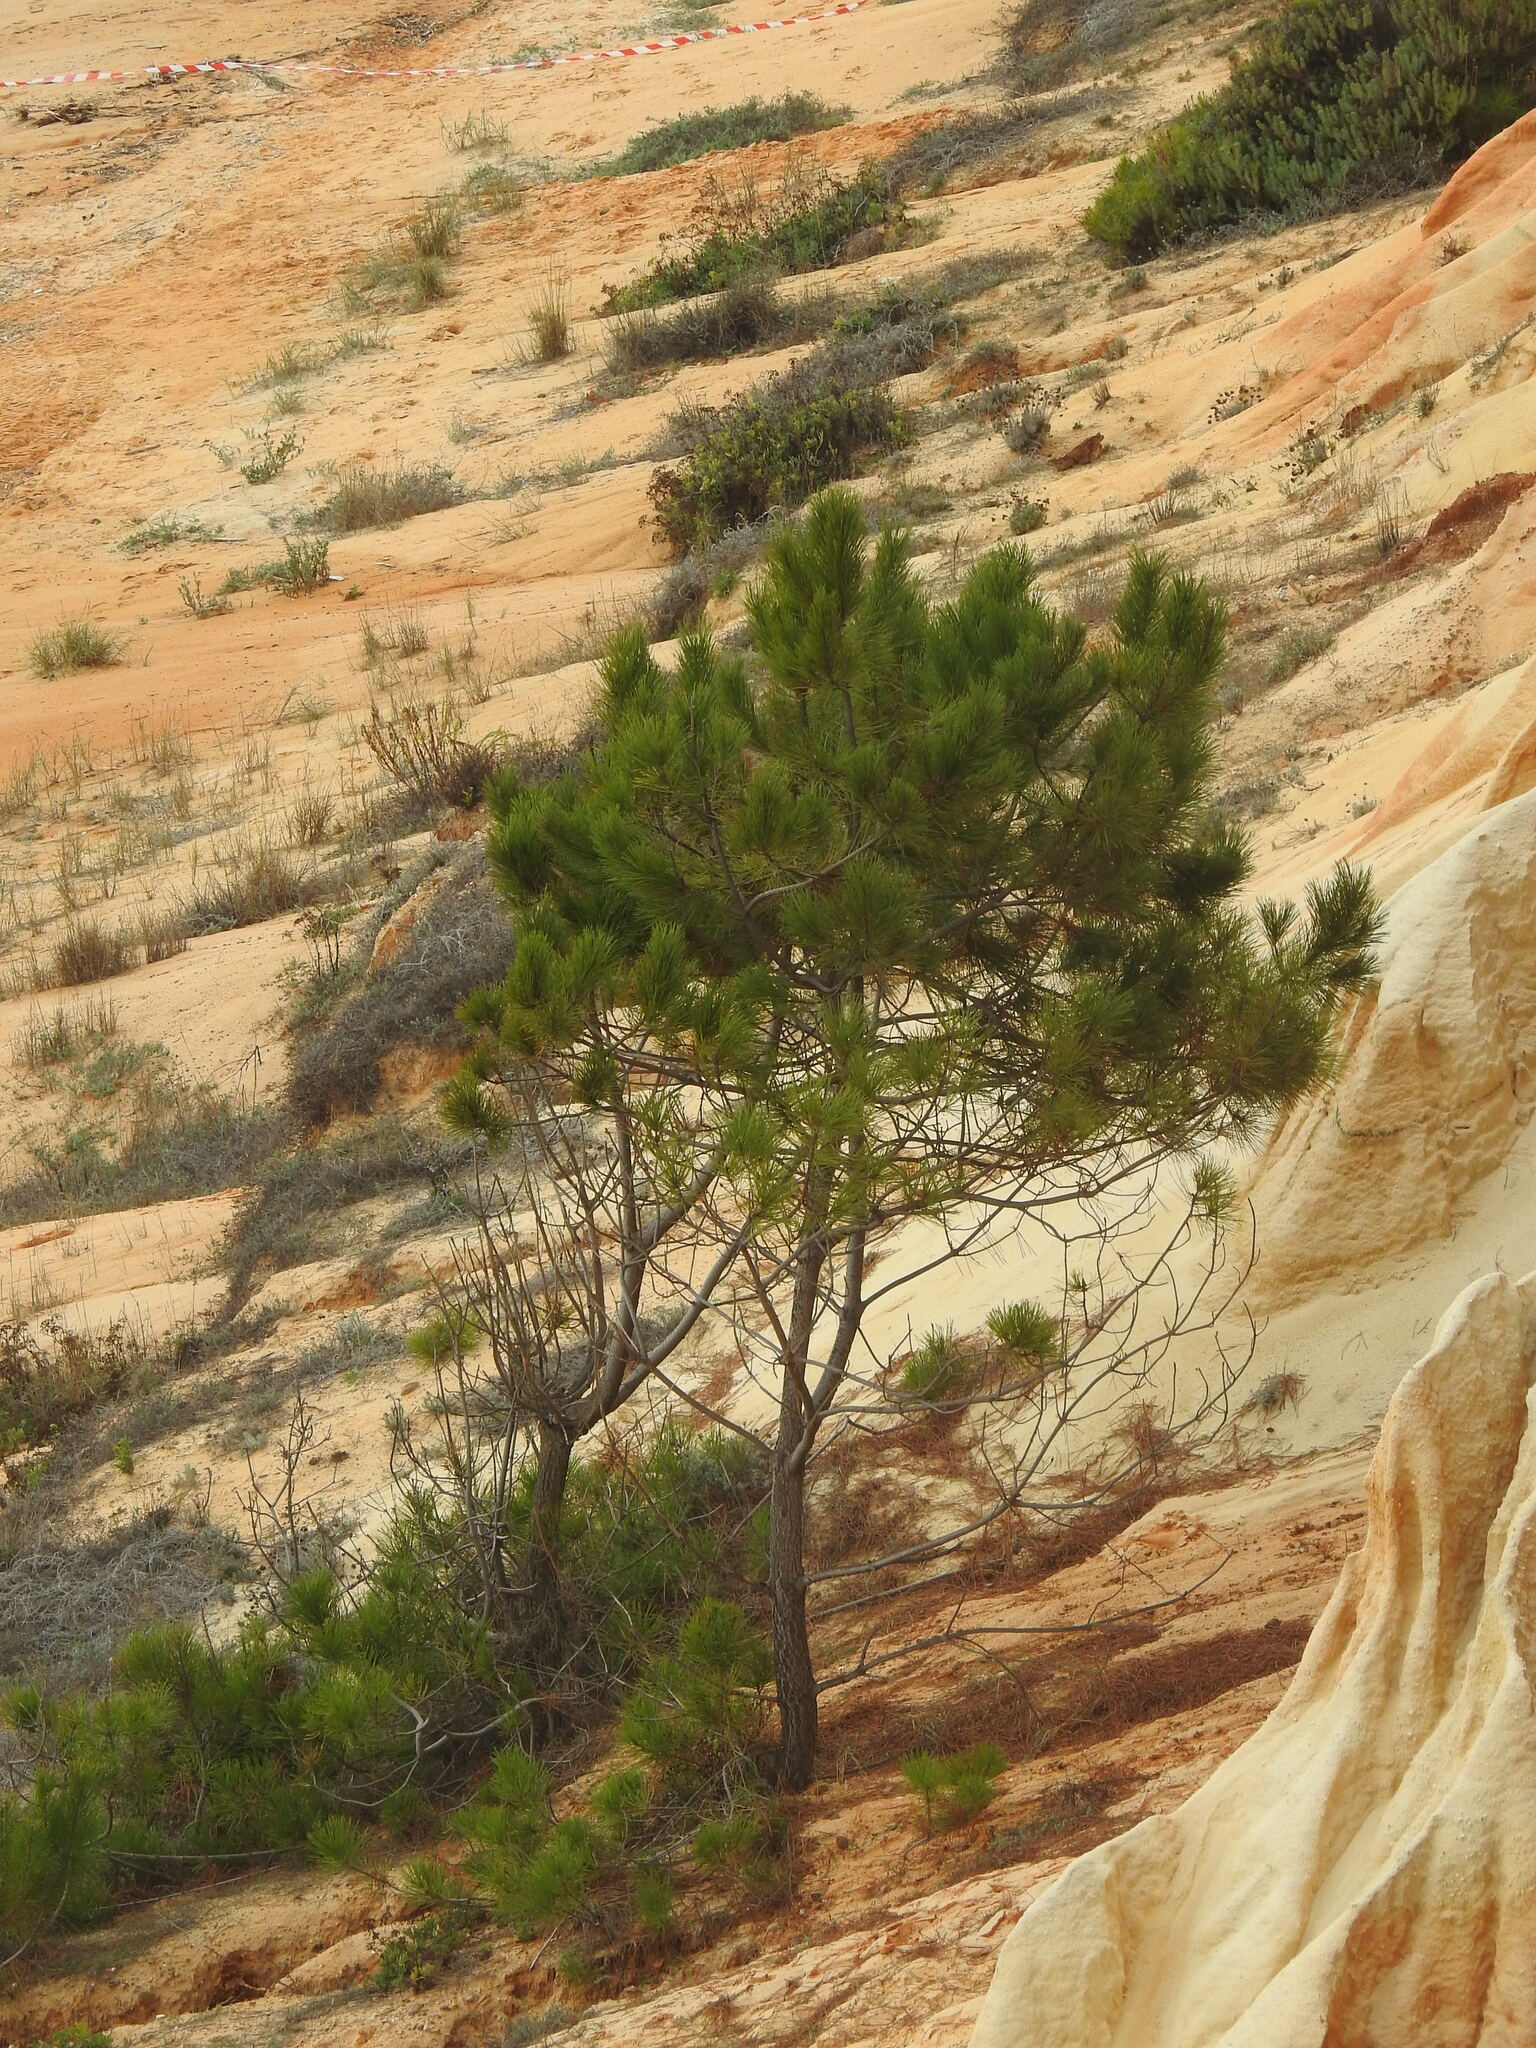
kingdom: Plantae
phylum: Tracheophyta
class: Pinopsida
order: Pinales
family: Pinaceae
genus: Pinus
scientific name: Pinus pinaster
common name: Maritime pine
